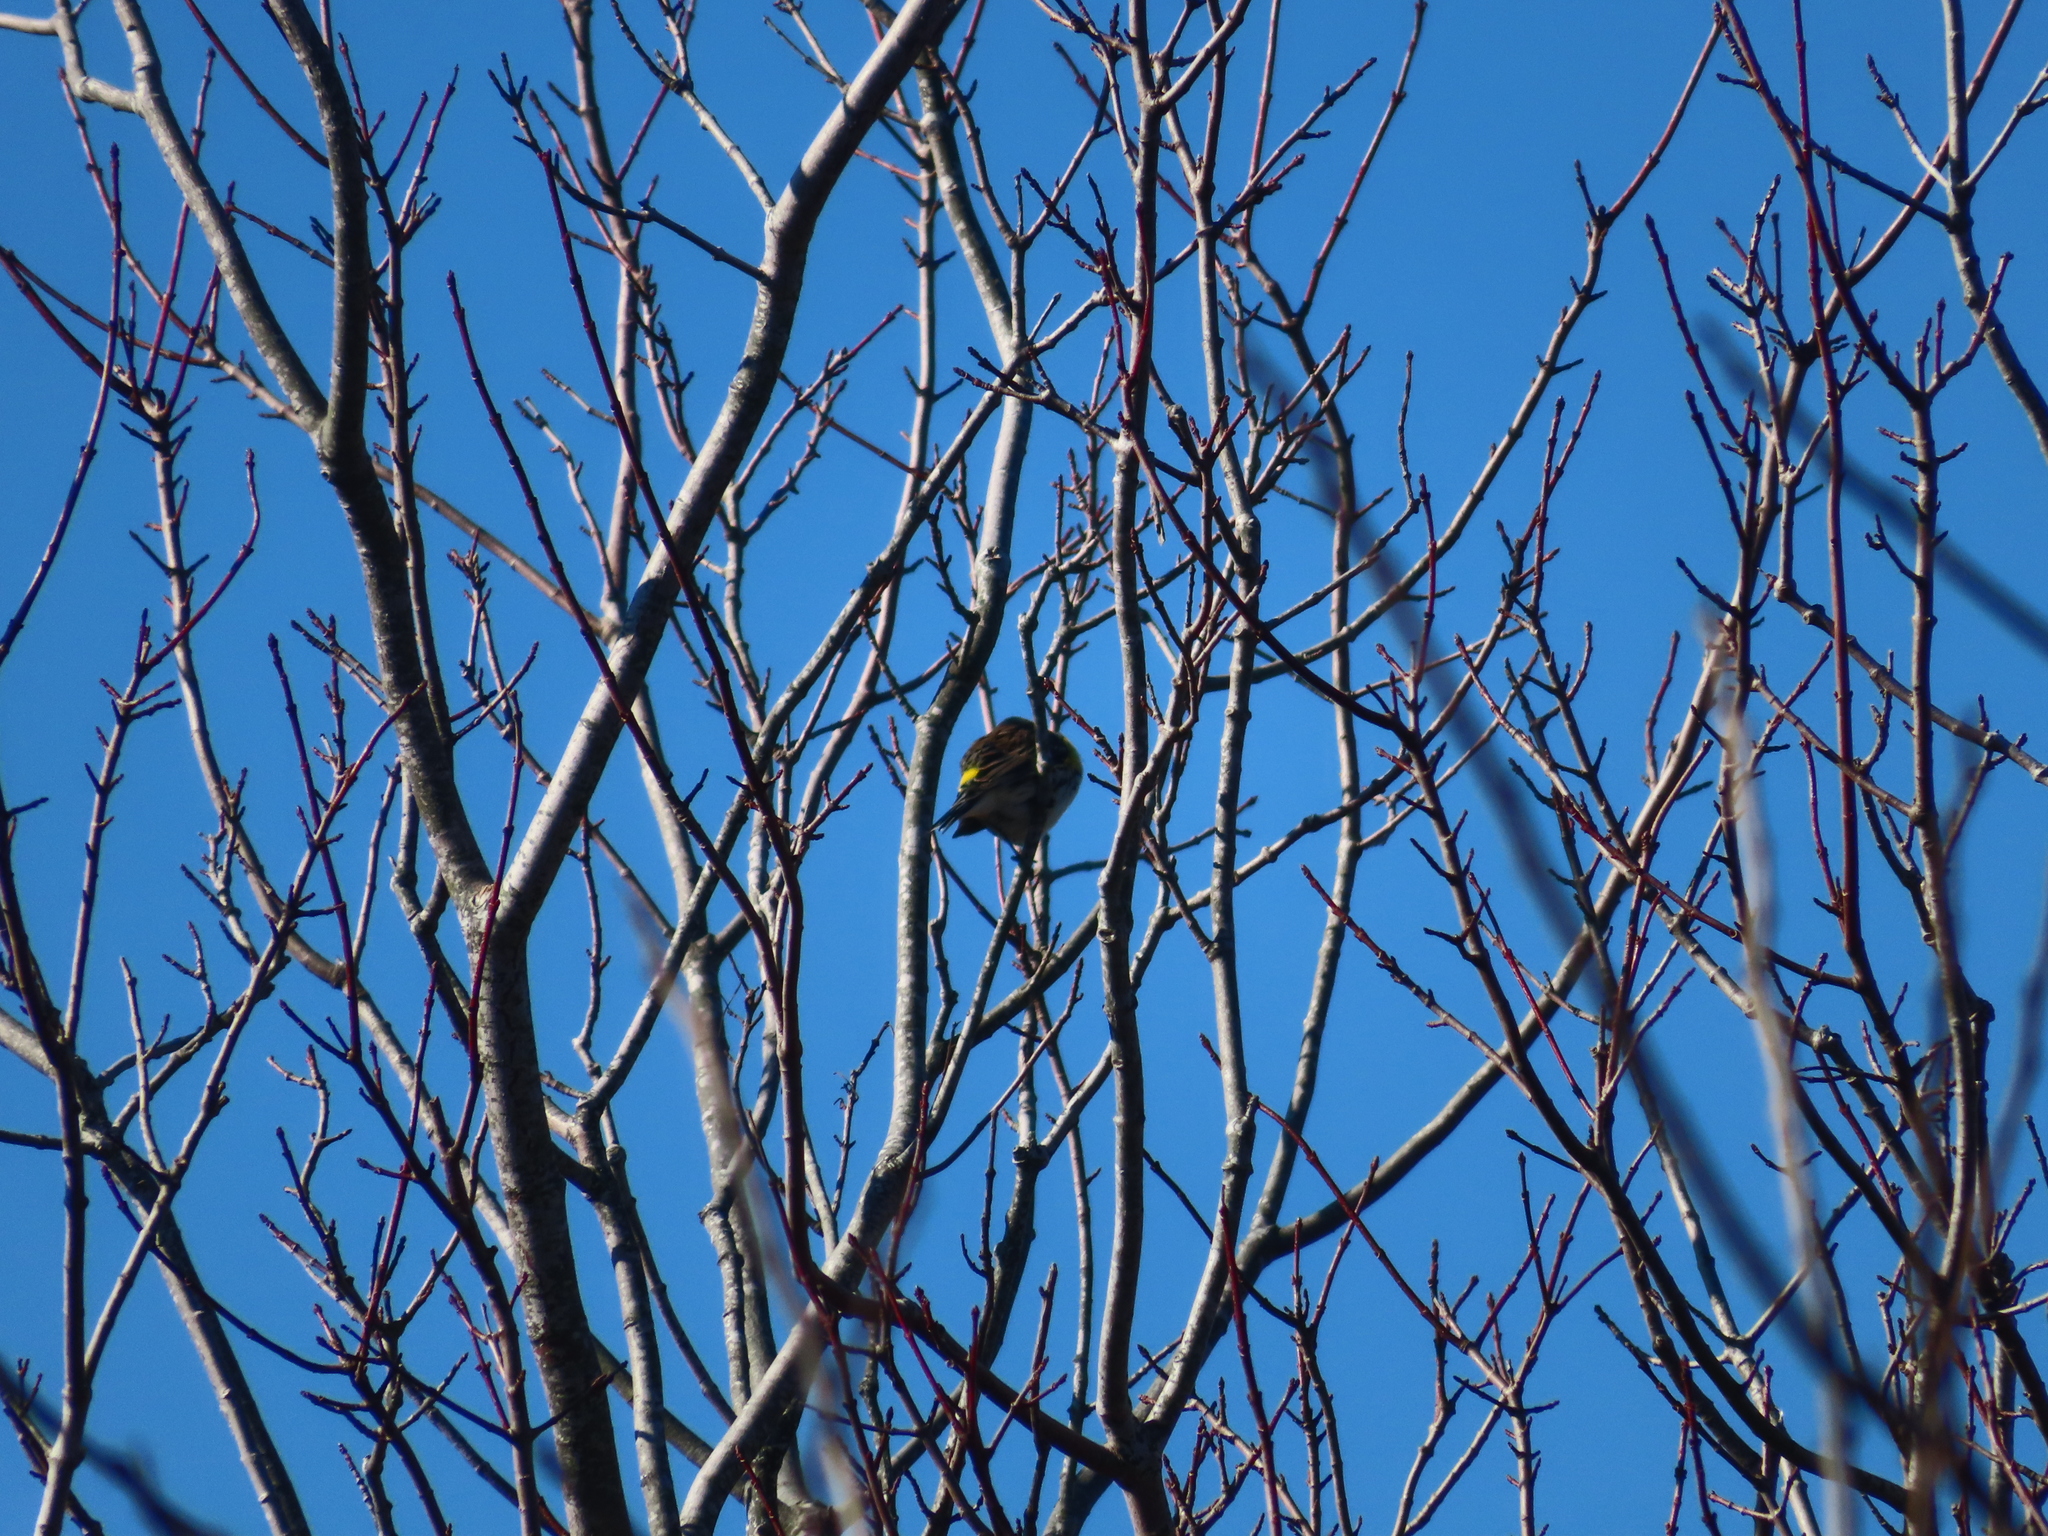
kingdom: Animalia
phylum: Chordata
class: Aves
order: Passeriformes
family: Parulidae
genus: Setophaga
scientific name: Setophaga coronata
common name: Myrtle warbler
